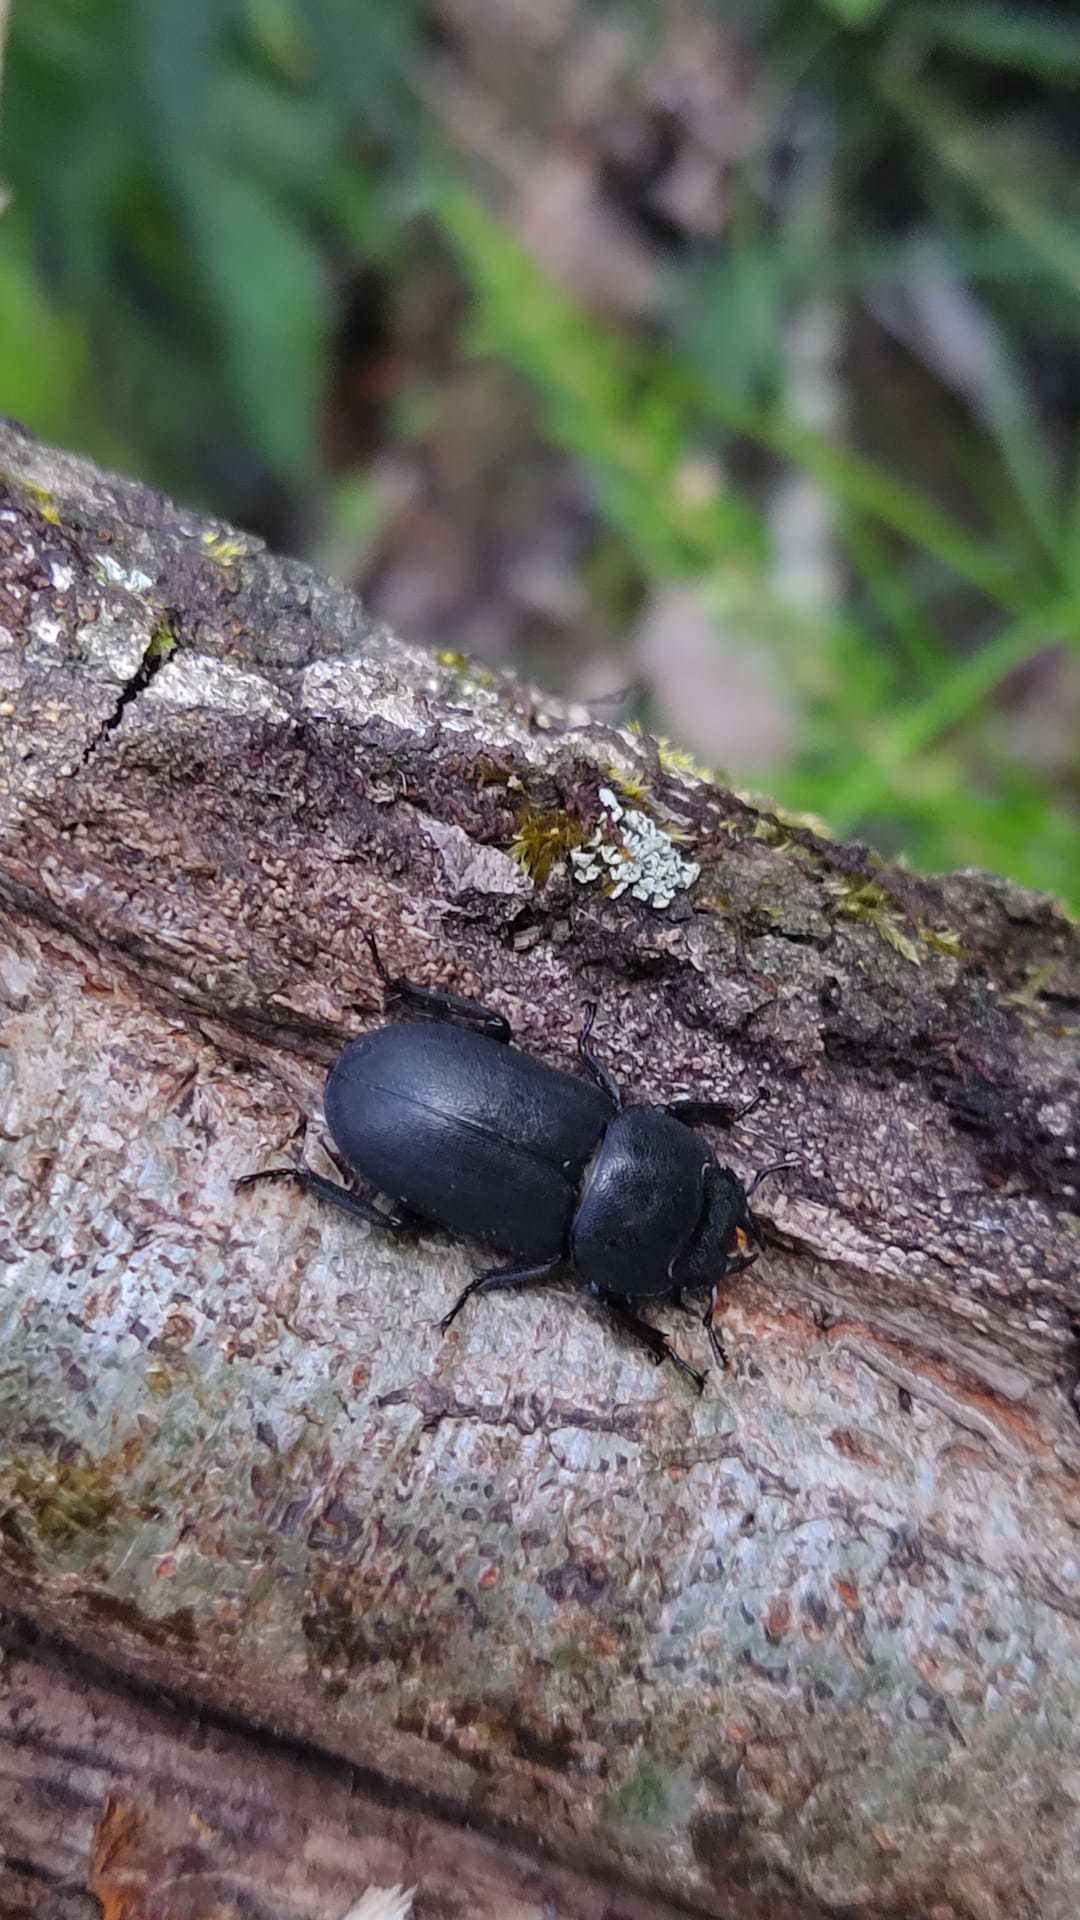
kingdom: Animalia
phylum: Arthropoda
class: Insecta
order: Coleoptera
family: Lucanidae
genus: Dorcus
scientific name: Dorcus parallelipipedus
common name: Lesser stag beetle
